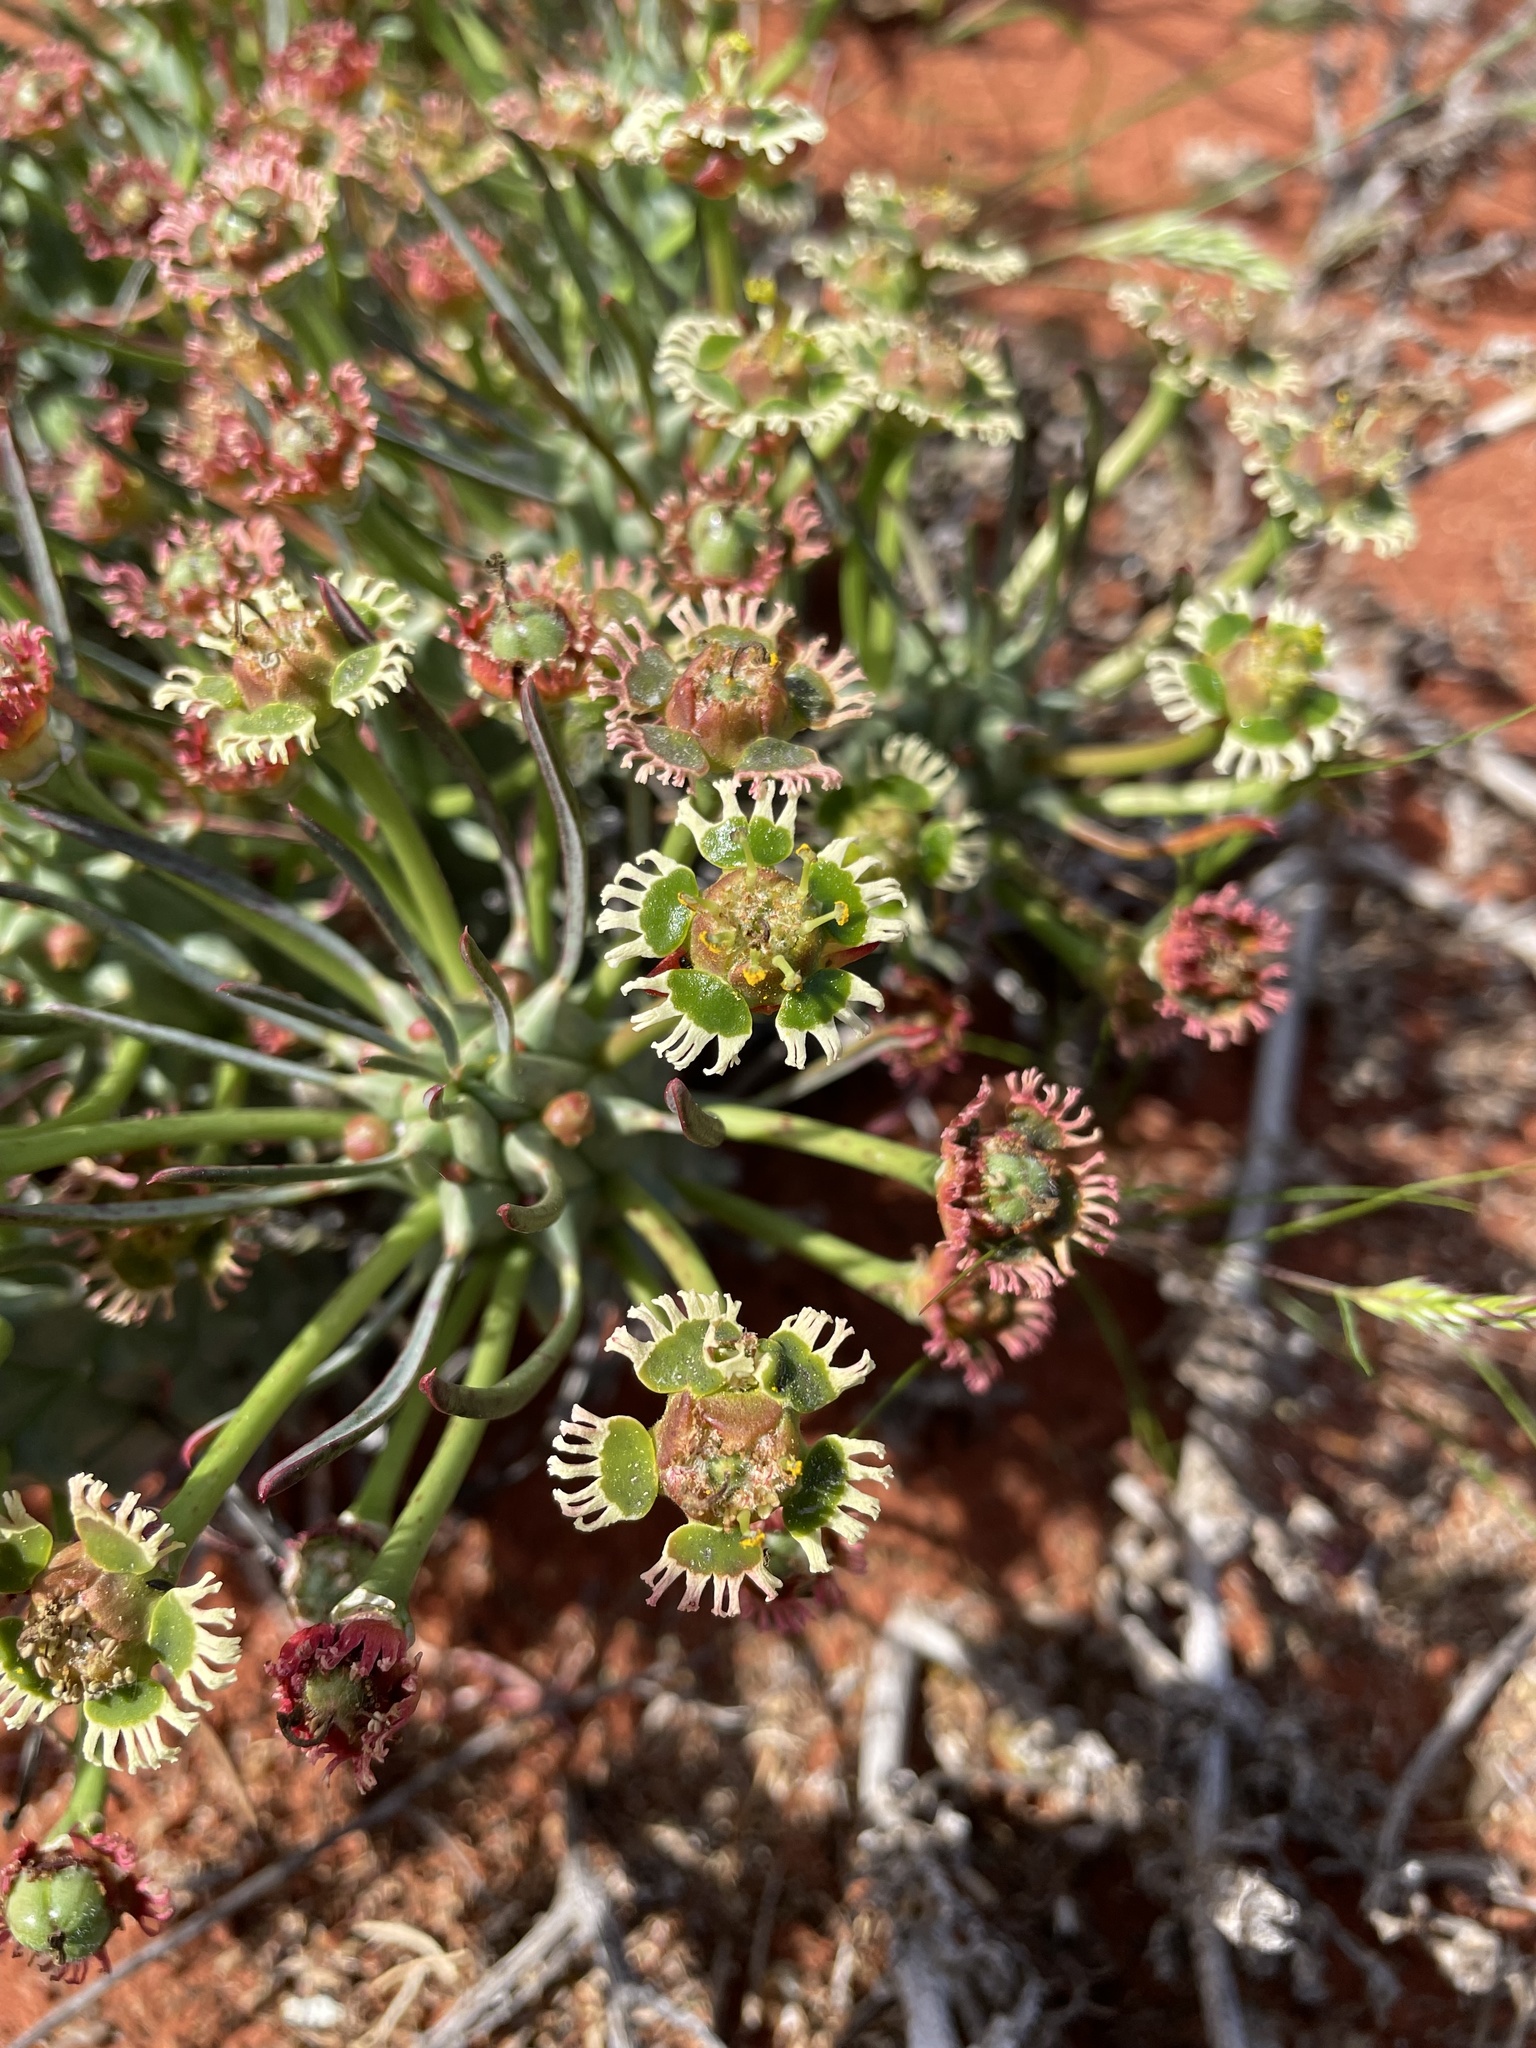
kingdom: Plantae
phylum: Tracheophyta
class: Magnoliopsida
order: Malpighiales
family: Euphorbiaceae
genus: Euphorbia
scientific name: Euphorbia caput-medusae
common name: Medusa's-head
